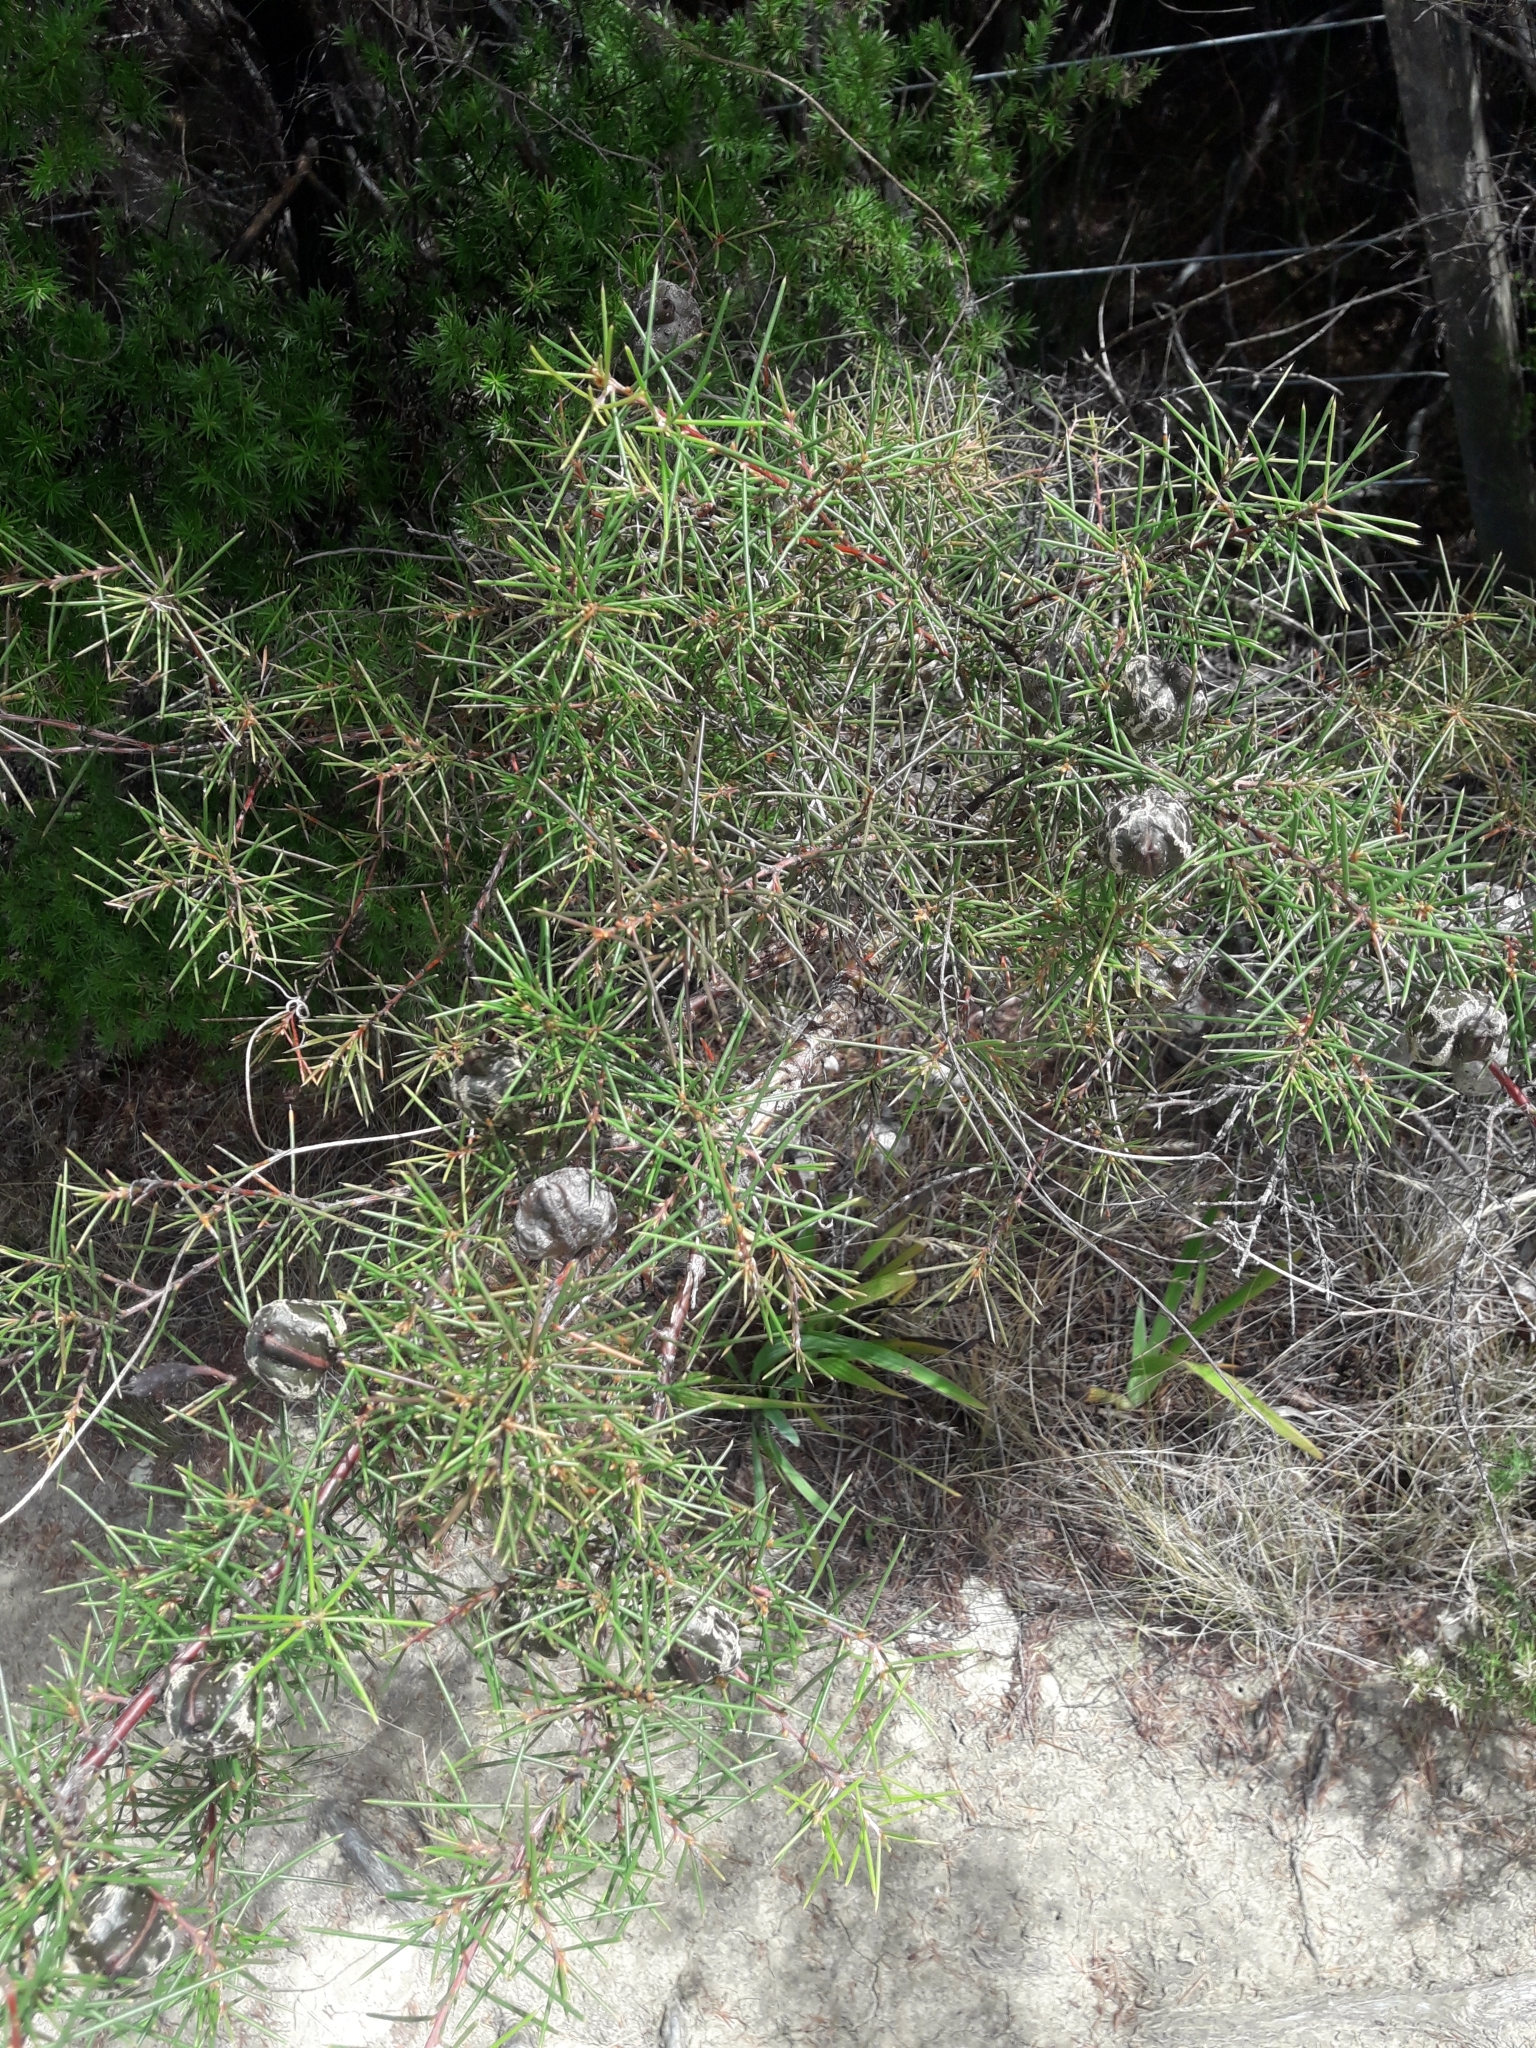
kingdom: Plantae
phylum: Tracheophyta
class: Magnoliopsida
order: Proteales
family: Proteaceae
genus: Hakea
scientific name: Hakea sericea
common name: Needle bush
